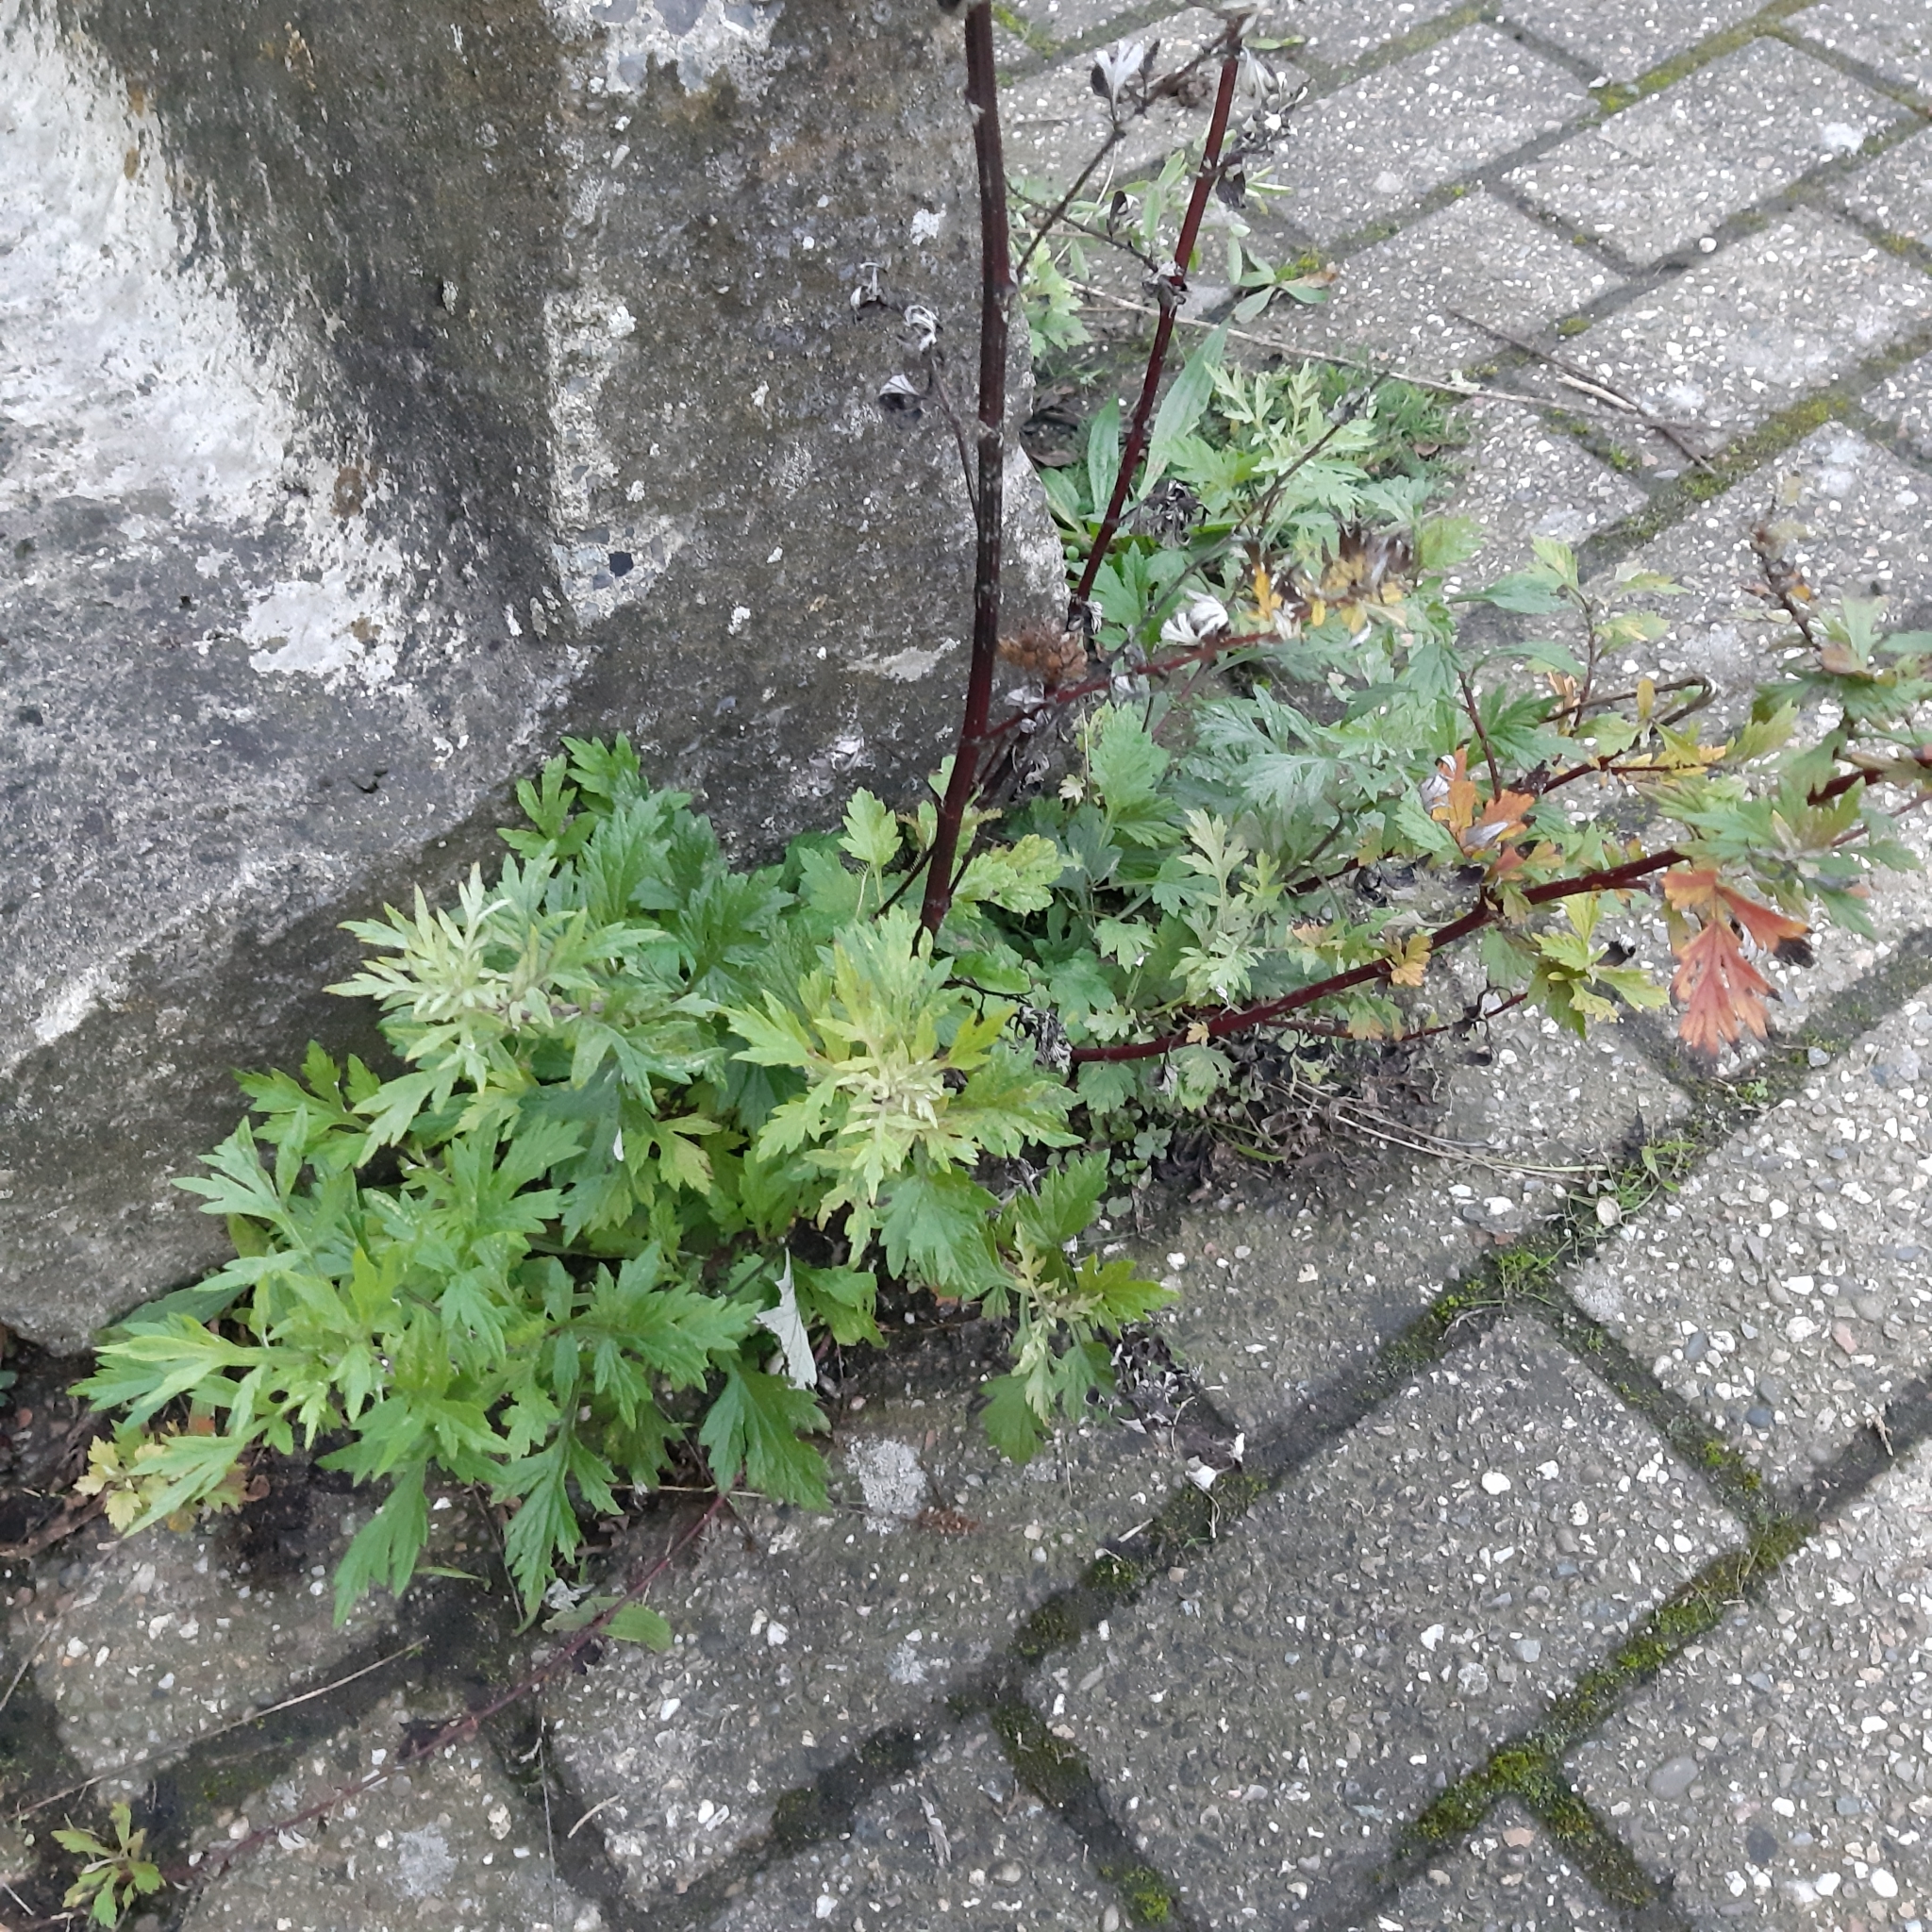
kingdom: Plantae
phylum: Tracheophyta
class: Magnoliopsida
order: Asterales
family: Asteraceae
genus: Artemisia
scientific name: Artemisia vulgaris
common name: Mugwort
